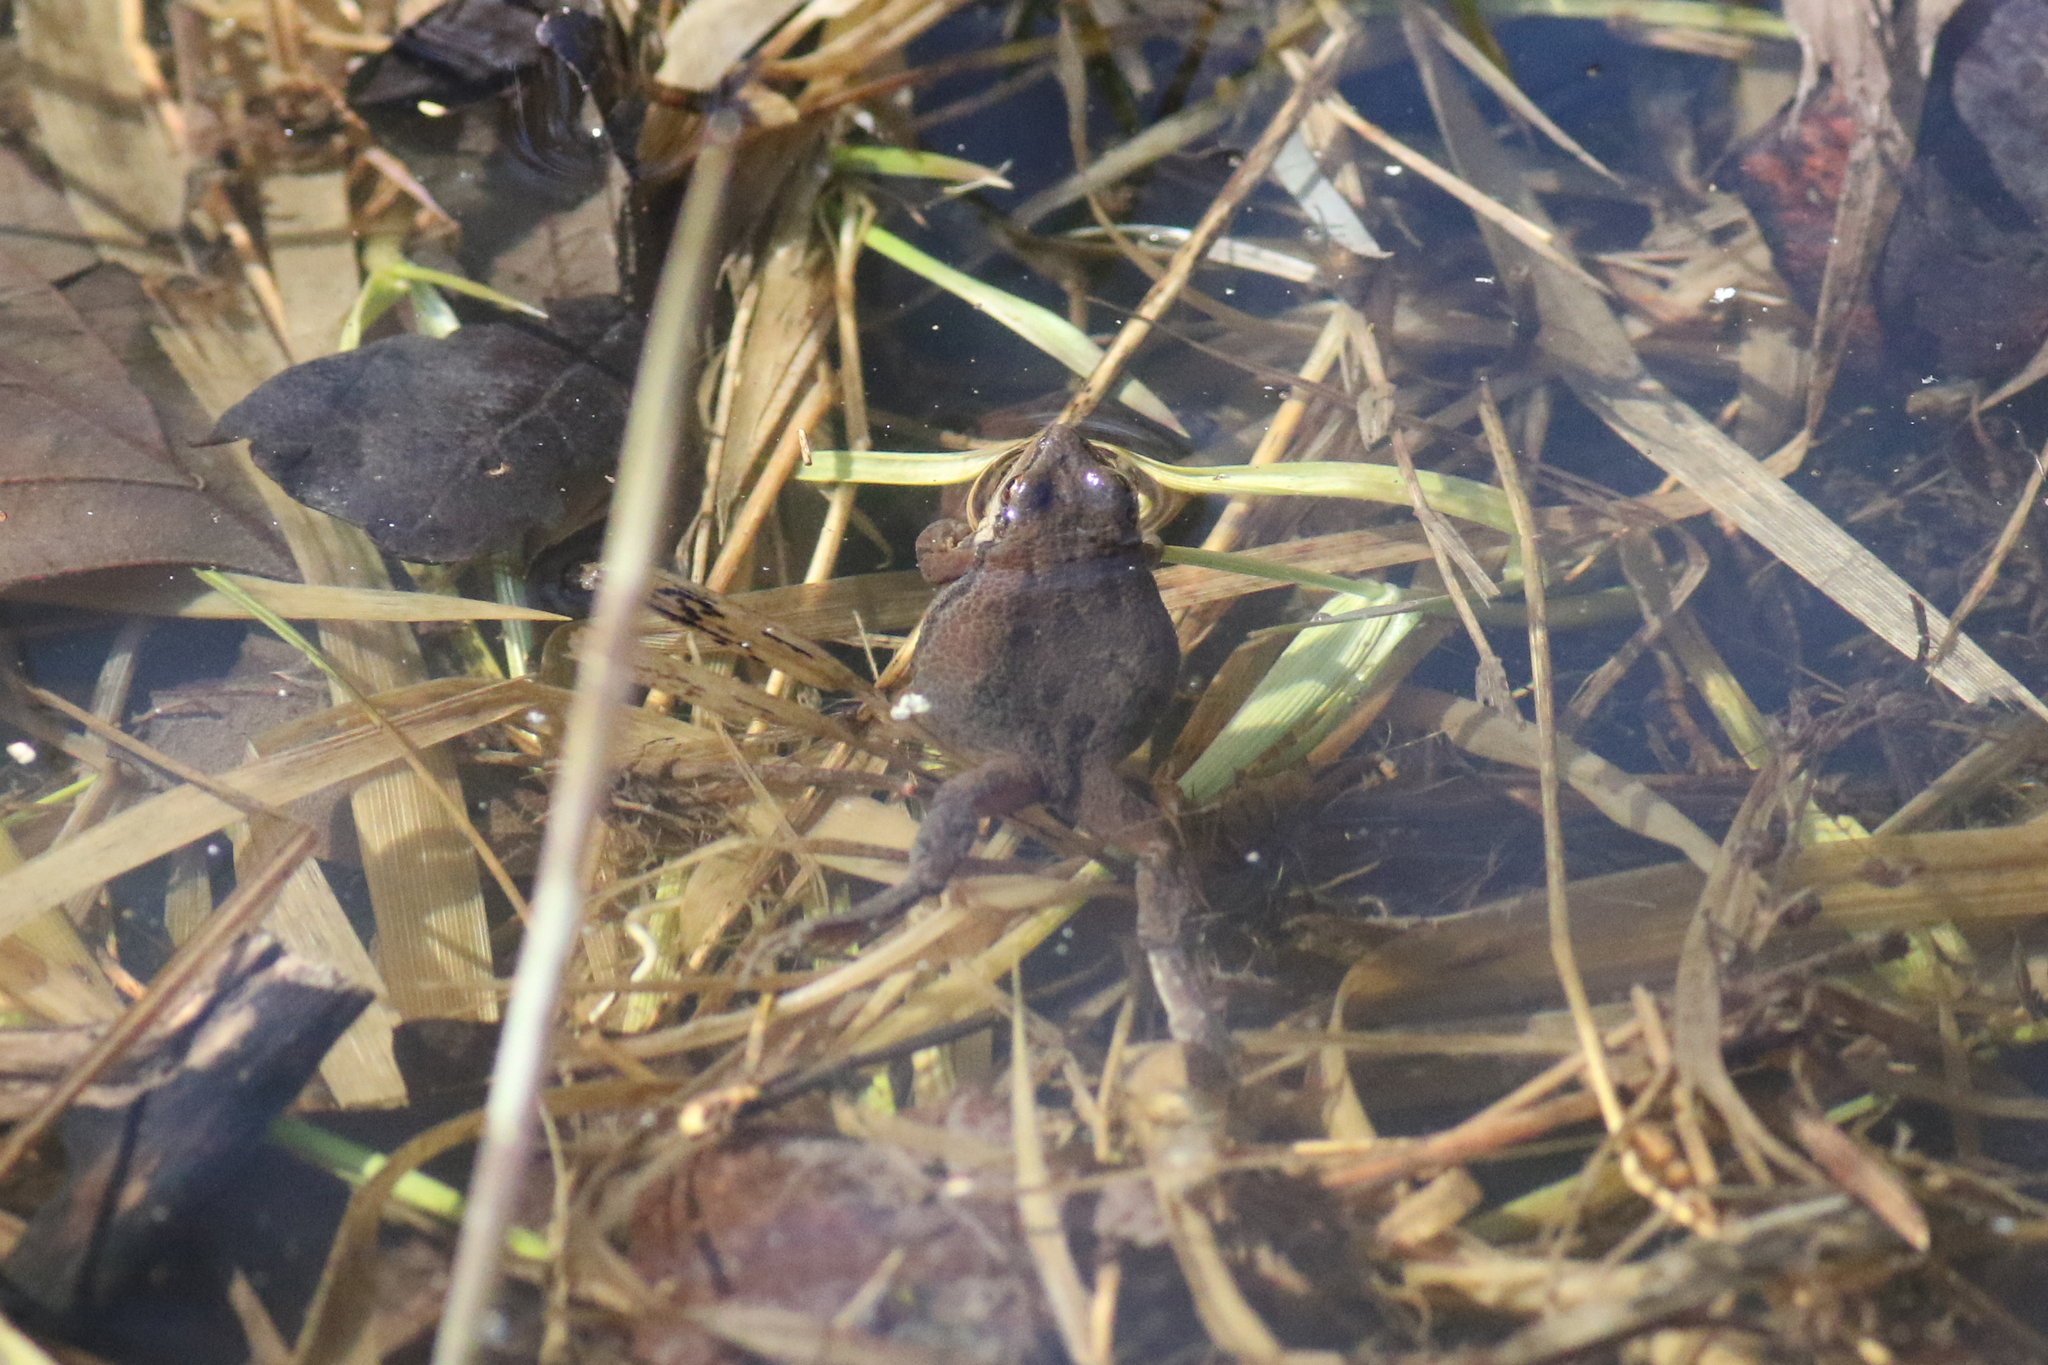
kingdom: Animalia
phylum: Chordata
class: Amphibia
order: Anura
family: Hylidae
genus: Pseudacris
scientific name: Pseudacris triseriata
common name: Western chorus frog
